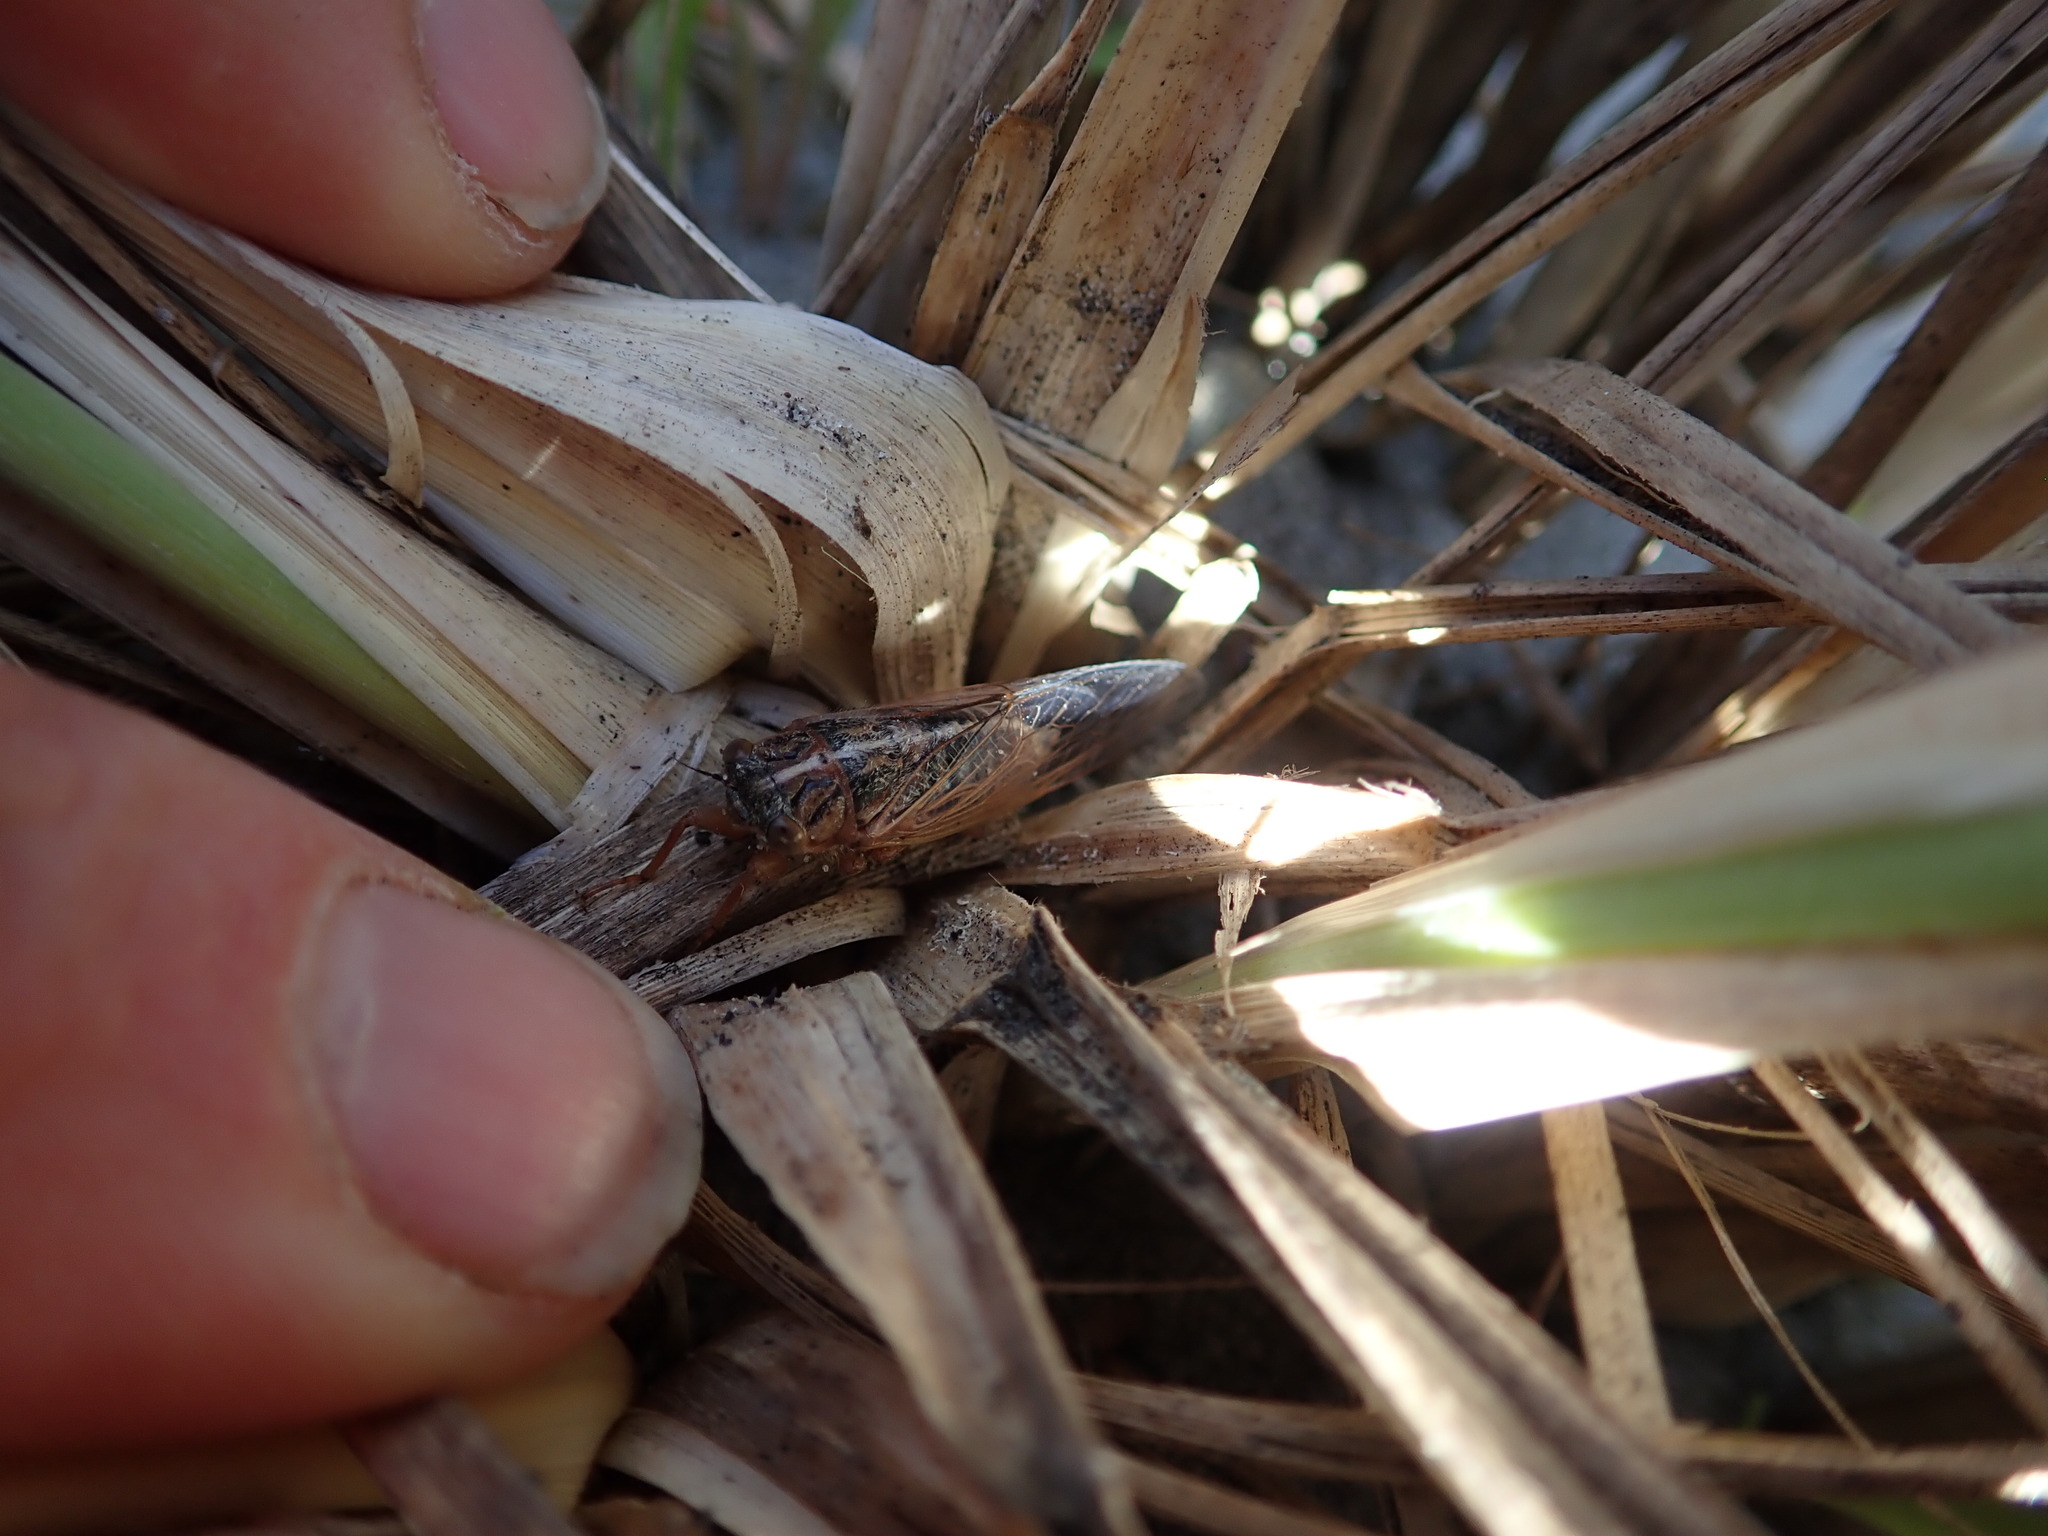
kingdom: Animalia
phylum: Arthropoda
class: Insecta
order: Hemiptera
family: Cicadidae
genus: Rhodopsalta
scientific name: Rhodopsalta leptomera
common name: Sand dune redtail cicada
